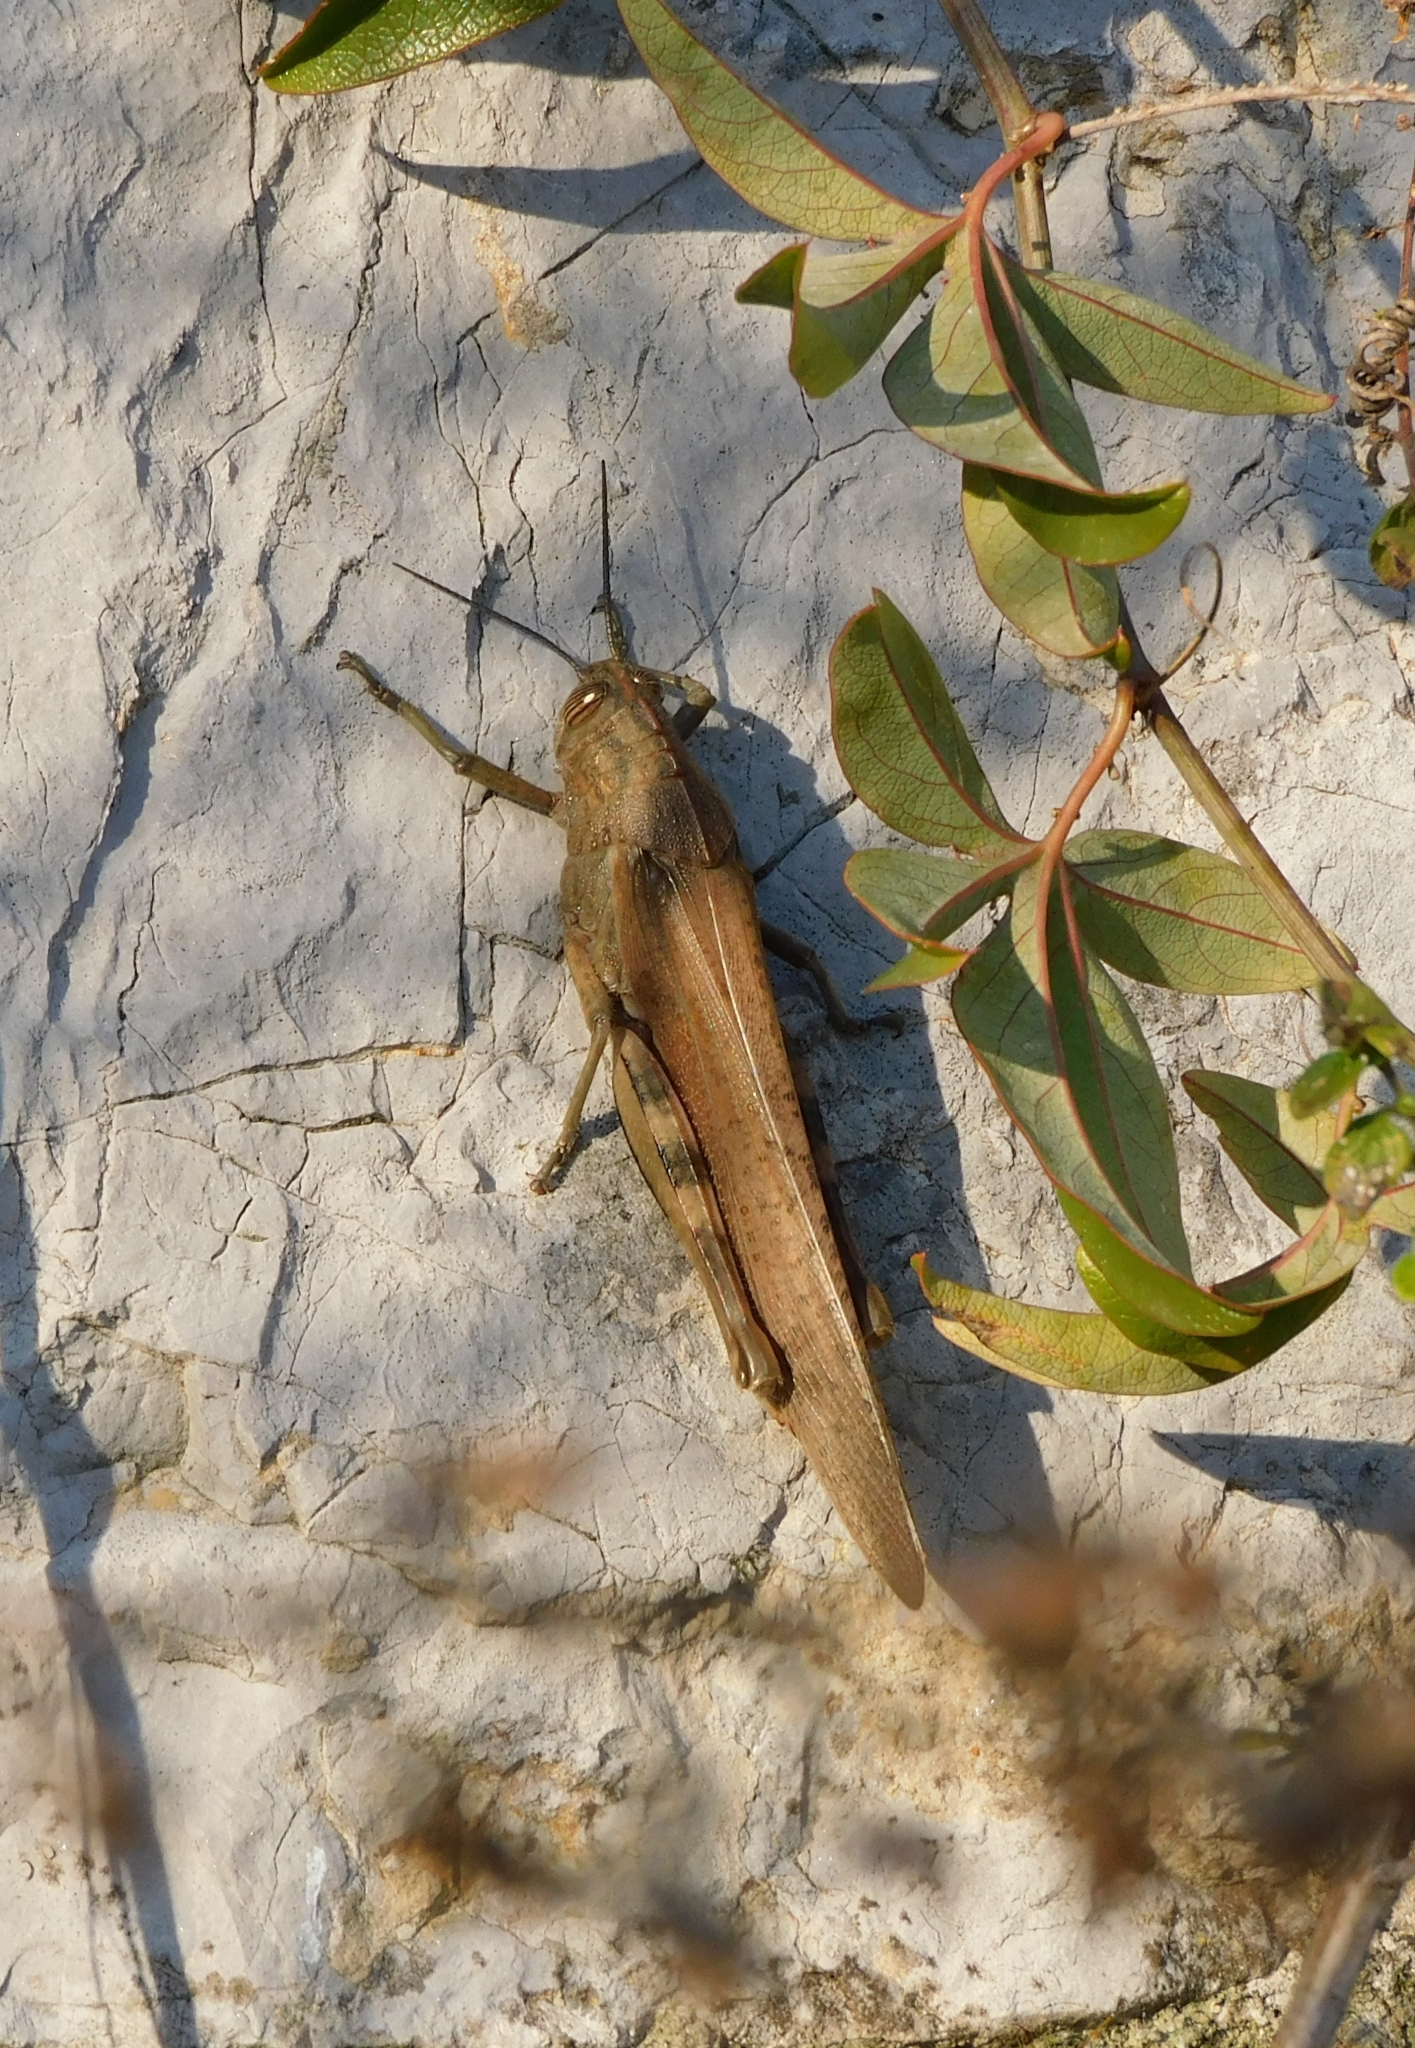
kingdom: Animalia
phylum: Arthropoda
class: Insecta
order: Orthoptera
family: Acrididae
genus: Anacridium
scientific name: Anacridium aegyptium
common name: Egyptian grasshopper
